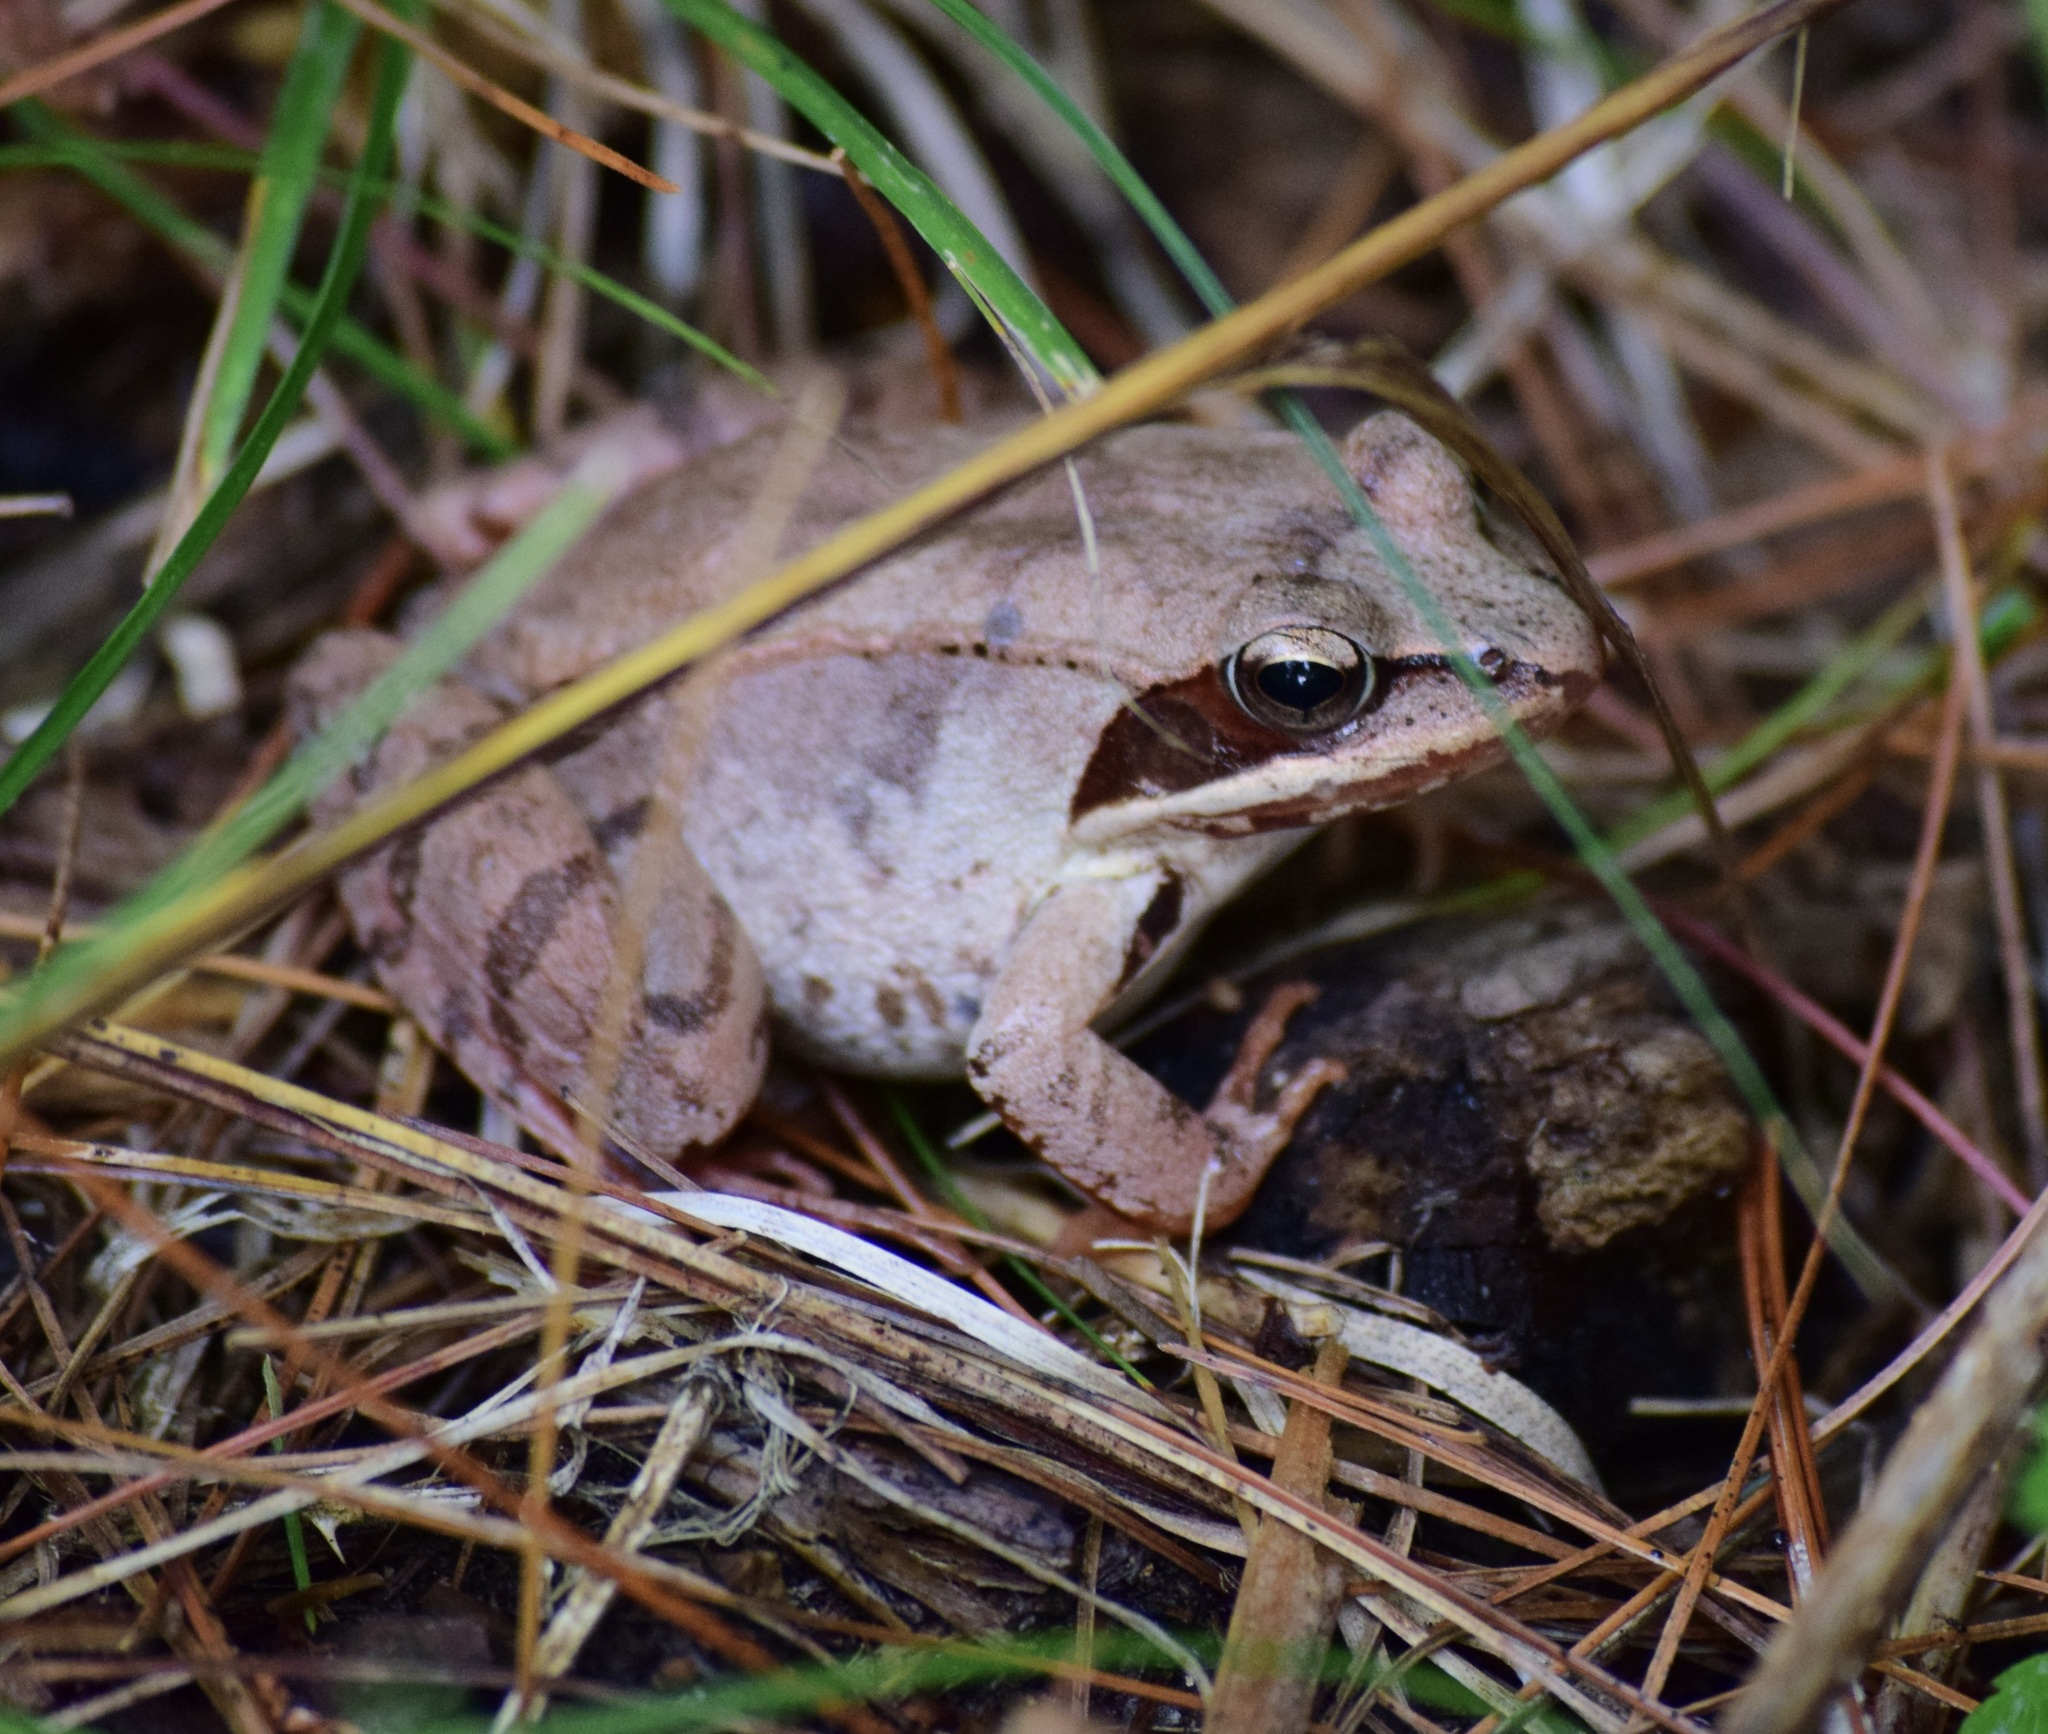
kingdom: Animalia
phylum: Chordata
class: Amphibia
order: Anura
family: Ranidae
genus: Lithobates
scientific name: Lithobates sylvaticus
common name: Wood frog
